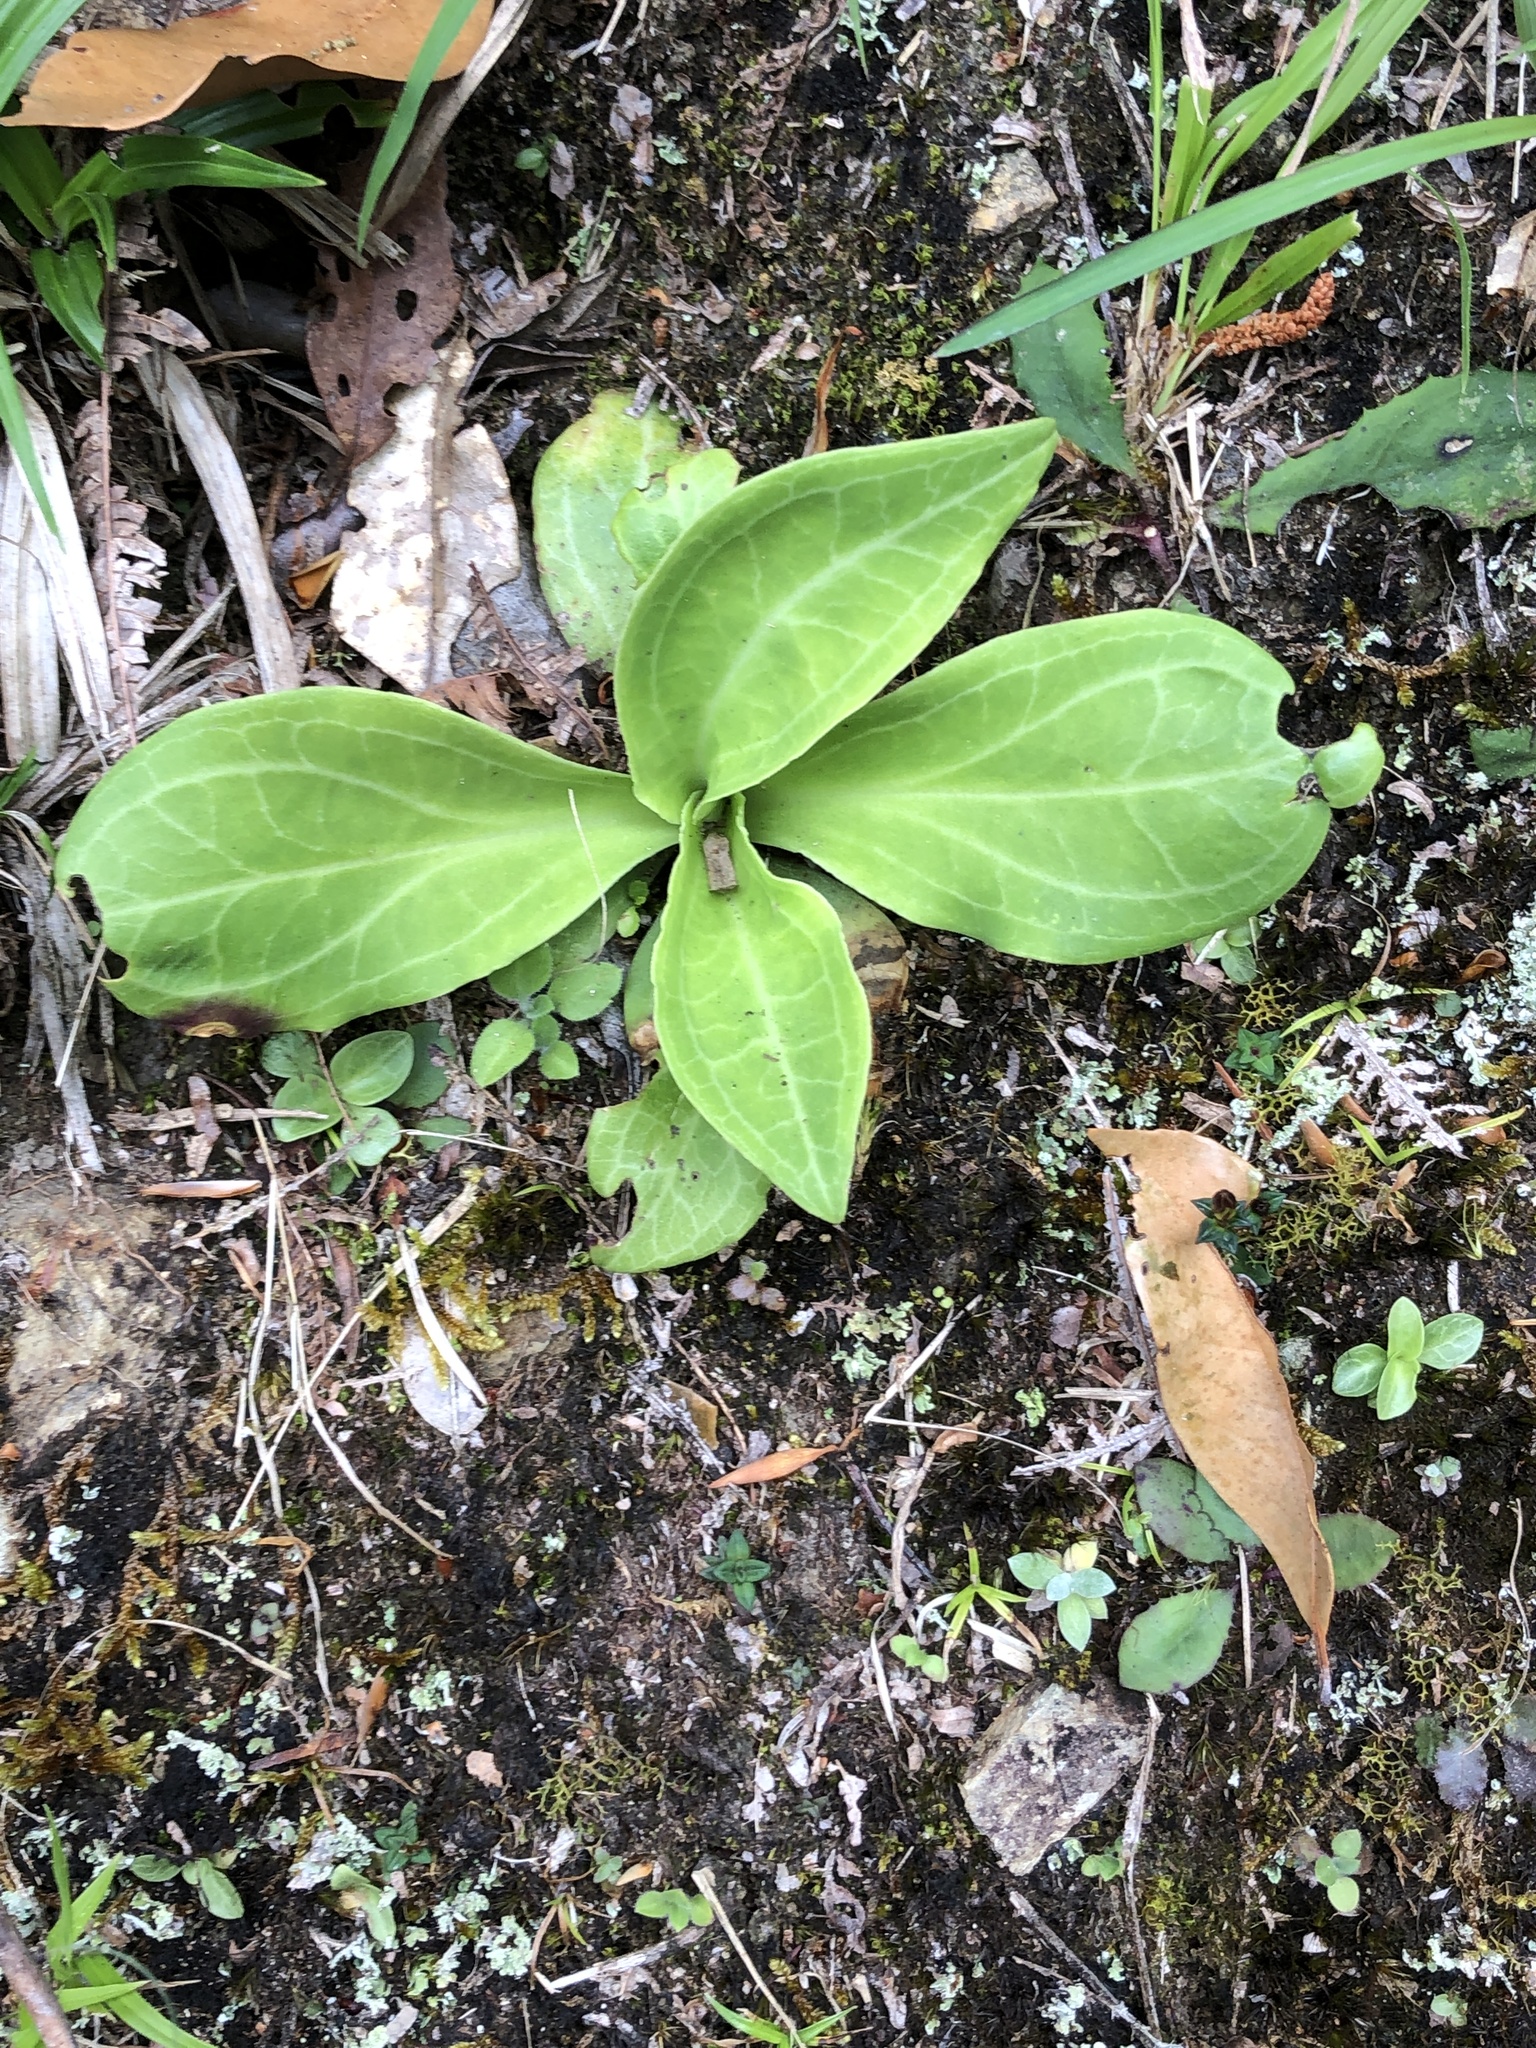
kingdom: Plantae
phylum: Tracheophyta
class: Magnoliopsida
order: Gentianales
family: Gentianaceae
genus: Swertia
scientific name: Swertia shintenensis
